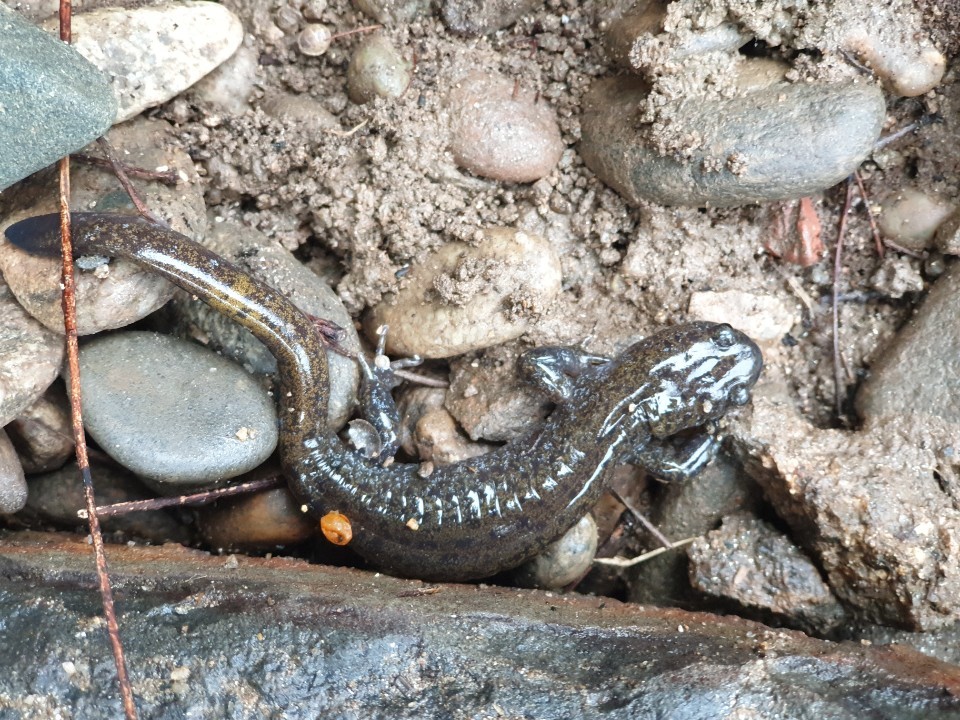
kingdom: Animalia
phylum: Chordata
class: Amphibia
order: Caudata
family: Hynobiidae
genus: Hynobius
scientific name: Hynobius leechii
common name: Gensan salamander
